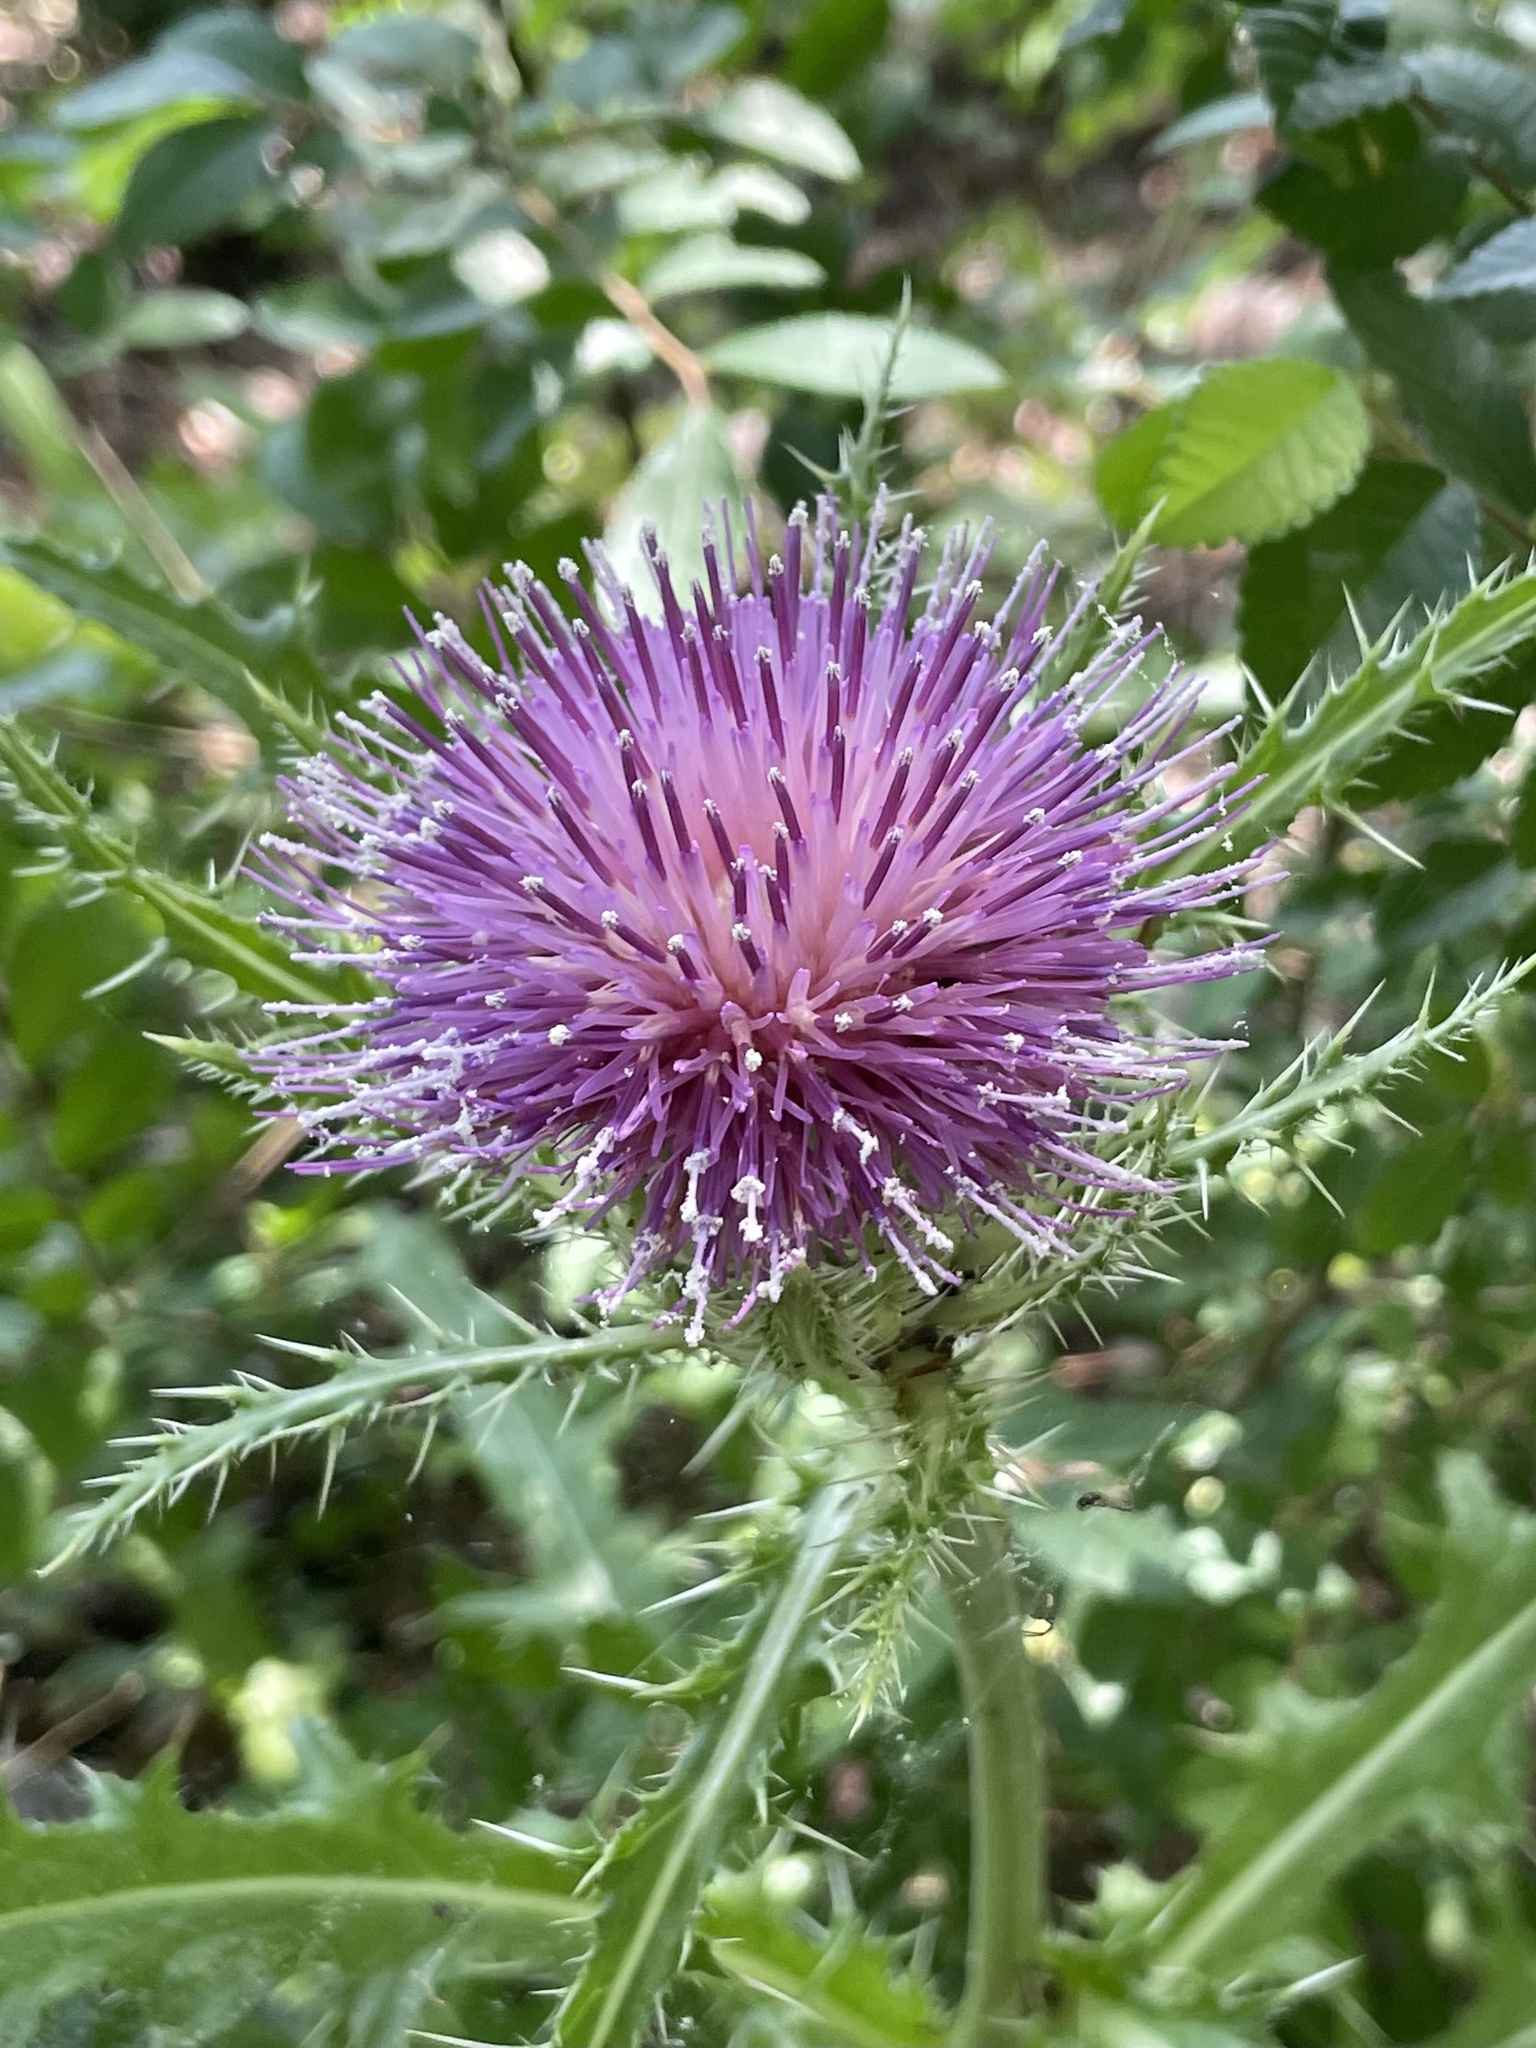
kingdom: Plantae
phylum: Tracheophyta
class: Magnoliopsida
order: Asterales
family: Asteraceae
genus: Cirsium
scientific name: Cirsium horridulum
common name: Bristly thistle
